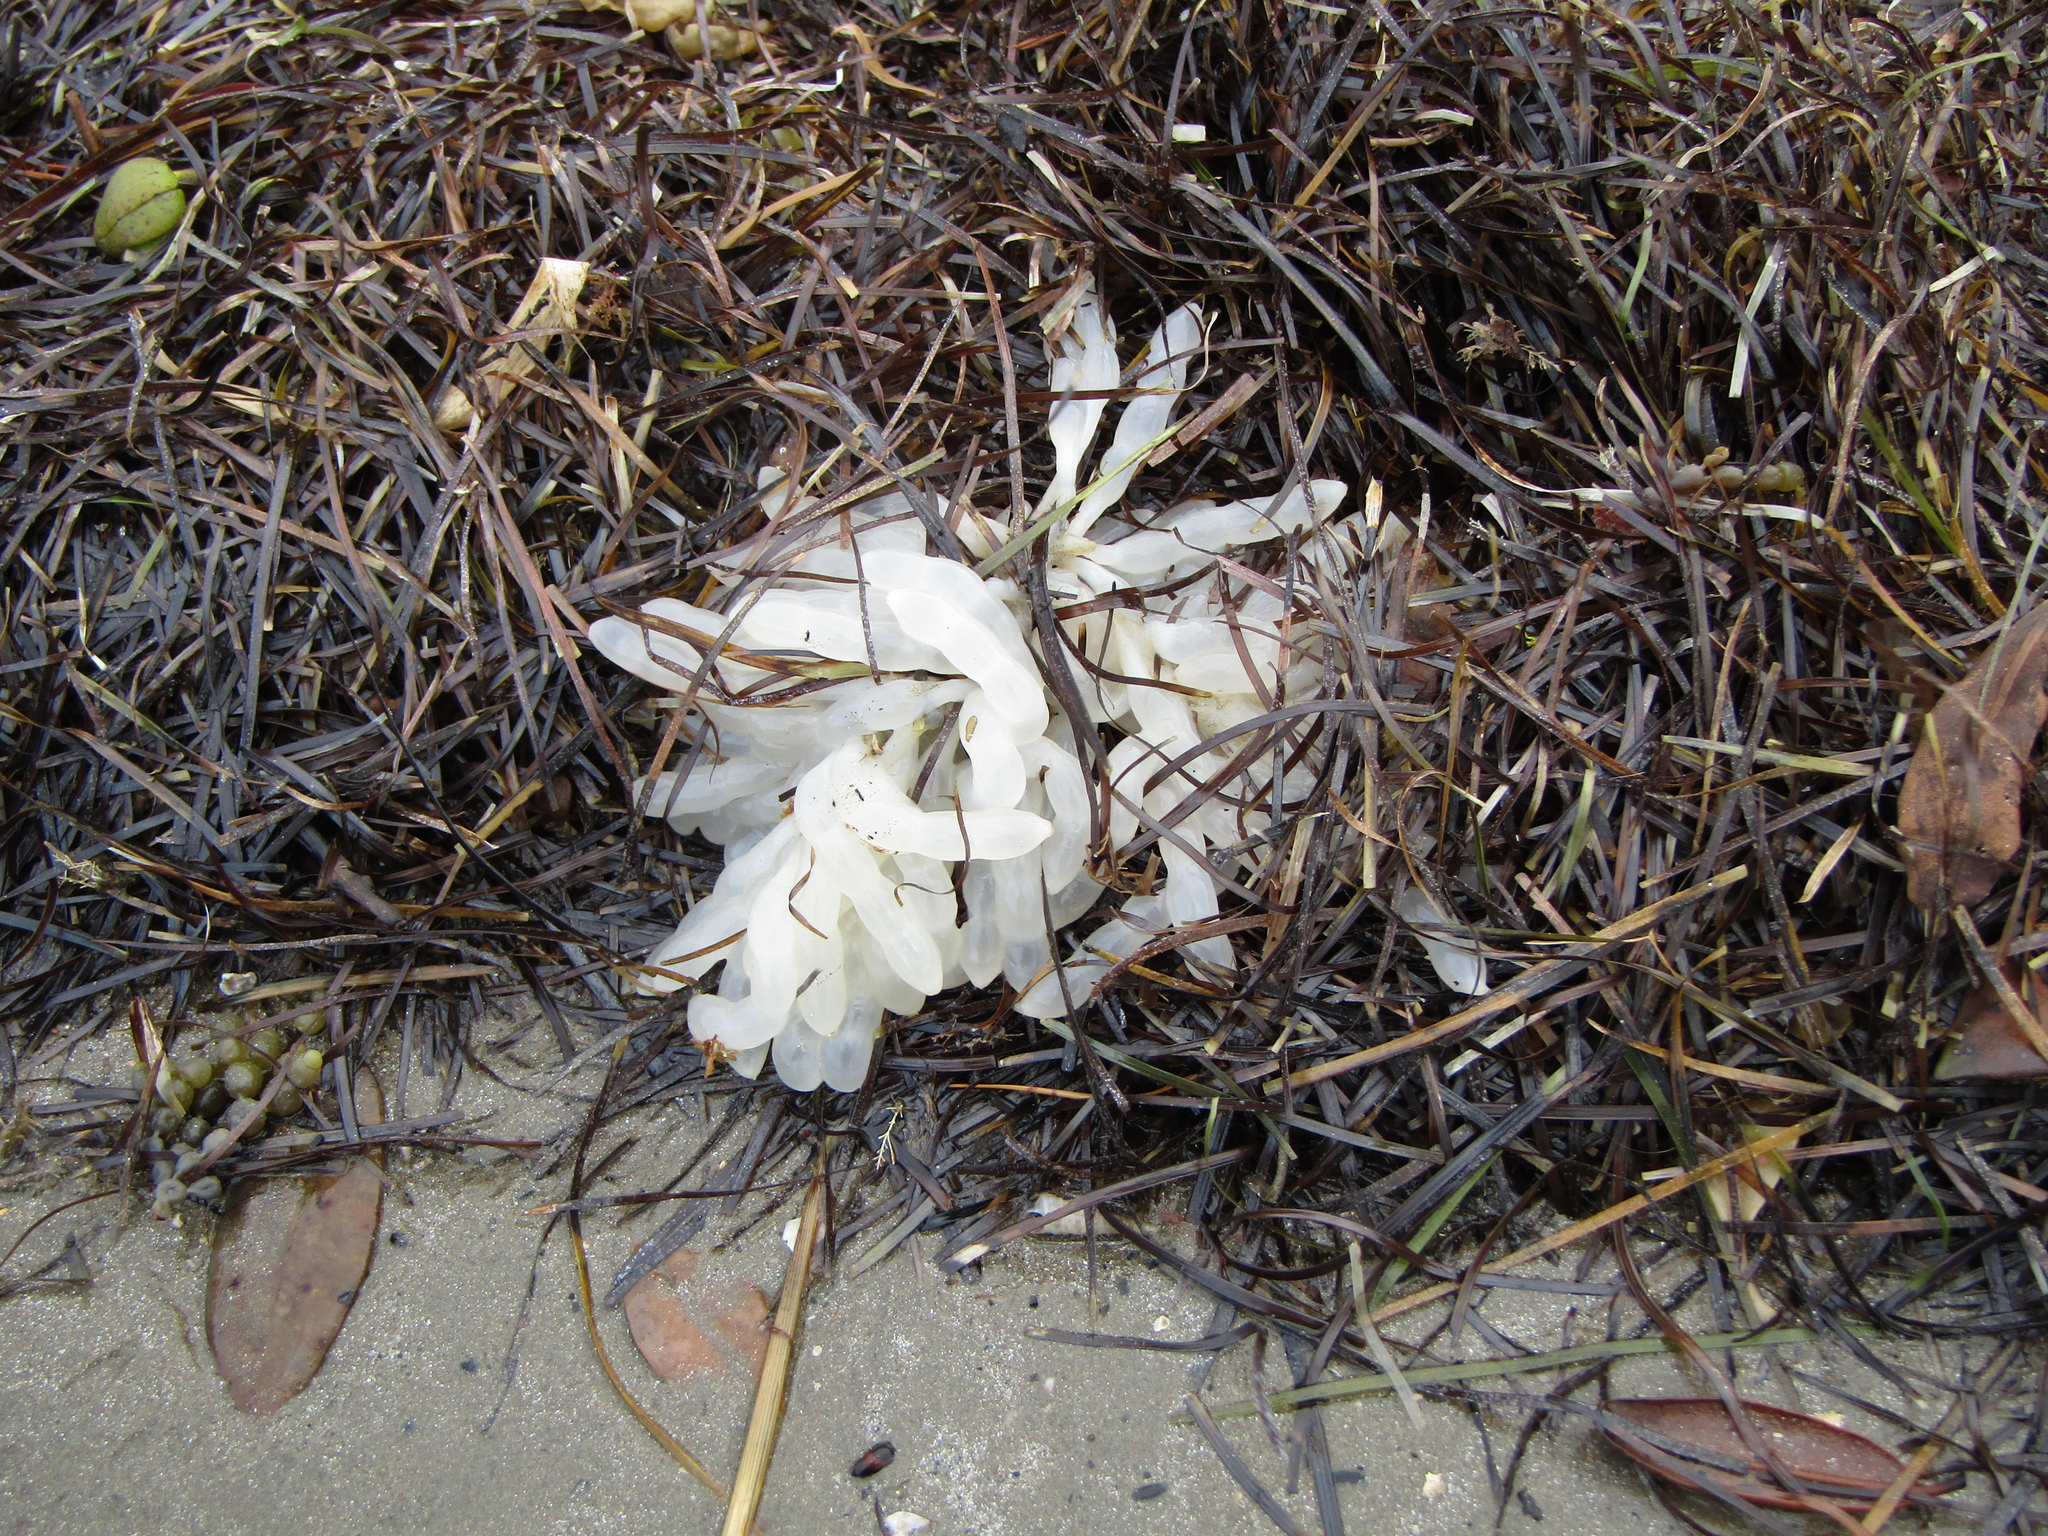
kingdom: Animalia
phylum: Mollusca
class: Cephalopoda
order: Myopsida
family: Loliginidae
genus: Sepioteuthis
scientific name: Sepioteuthis australis
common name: Southern reef squid
